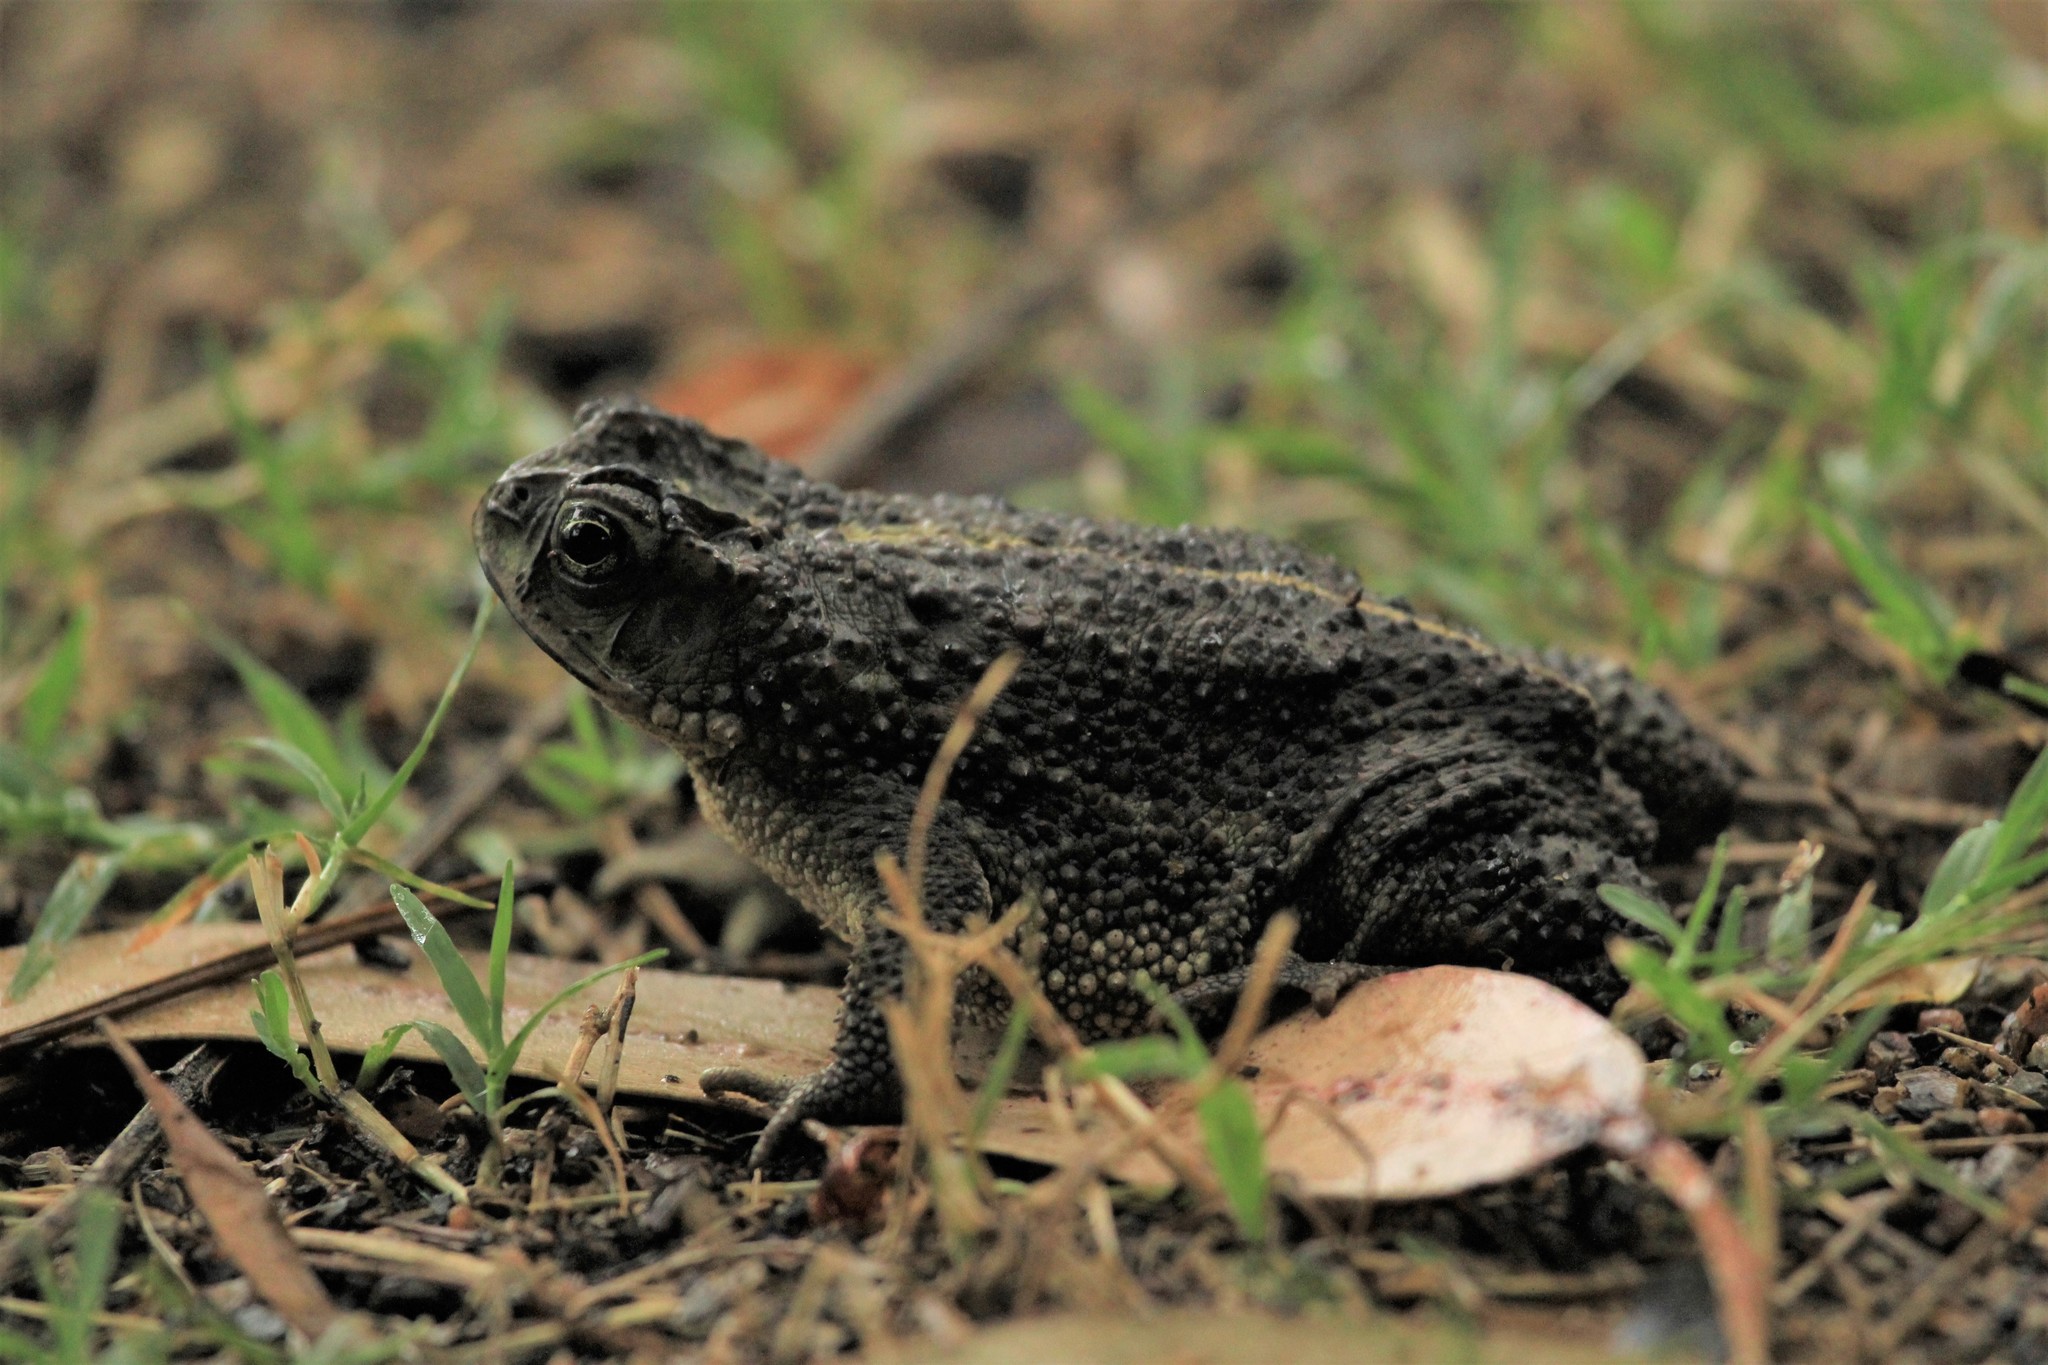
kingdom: Animalia
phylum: Chordata
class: Amphibia
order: Anura
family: Bufonidae
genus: Rhinella
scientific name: Rhinella dorbignyi
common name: D´orbigny’s toad
